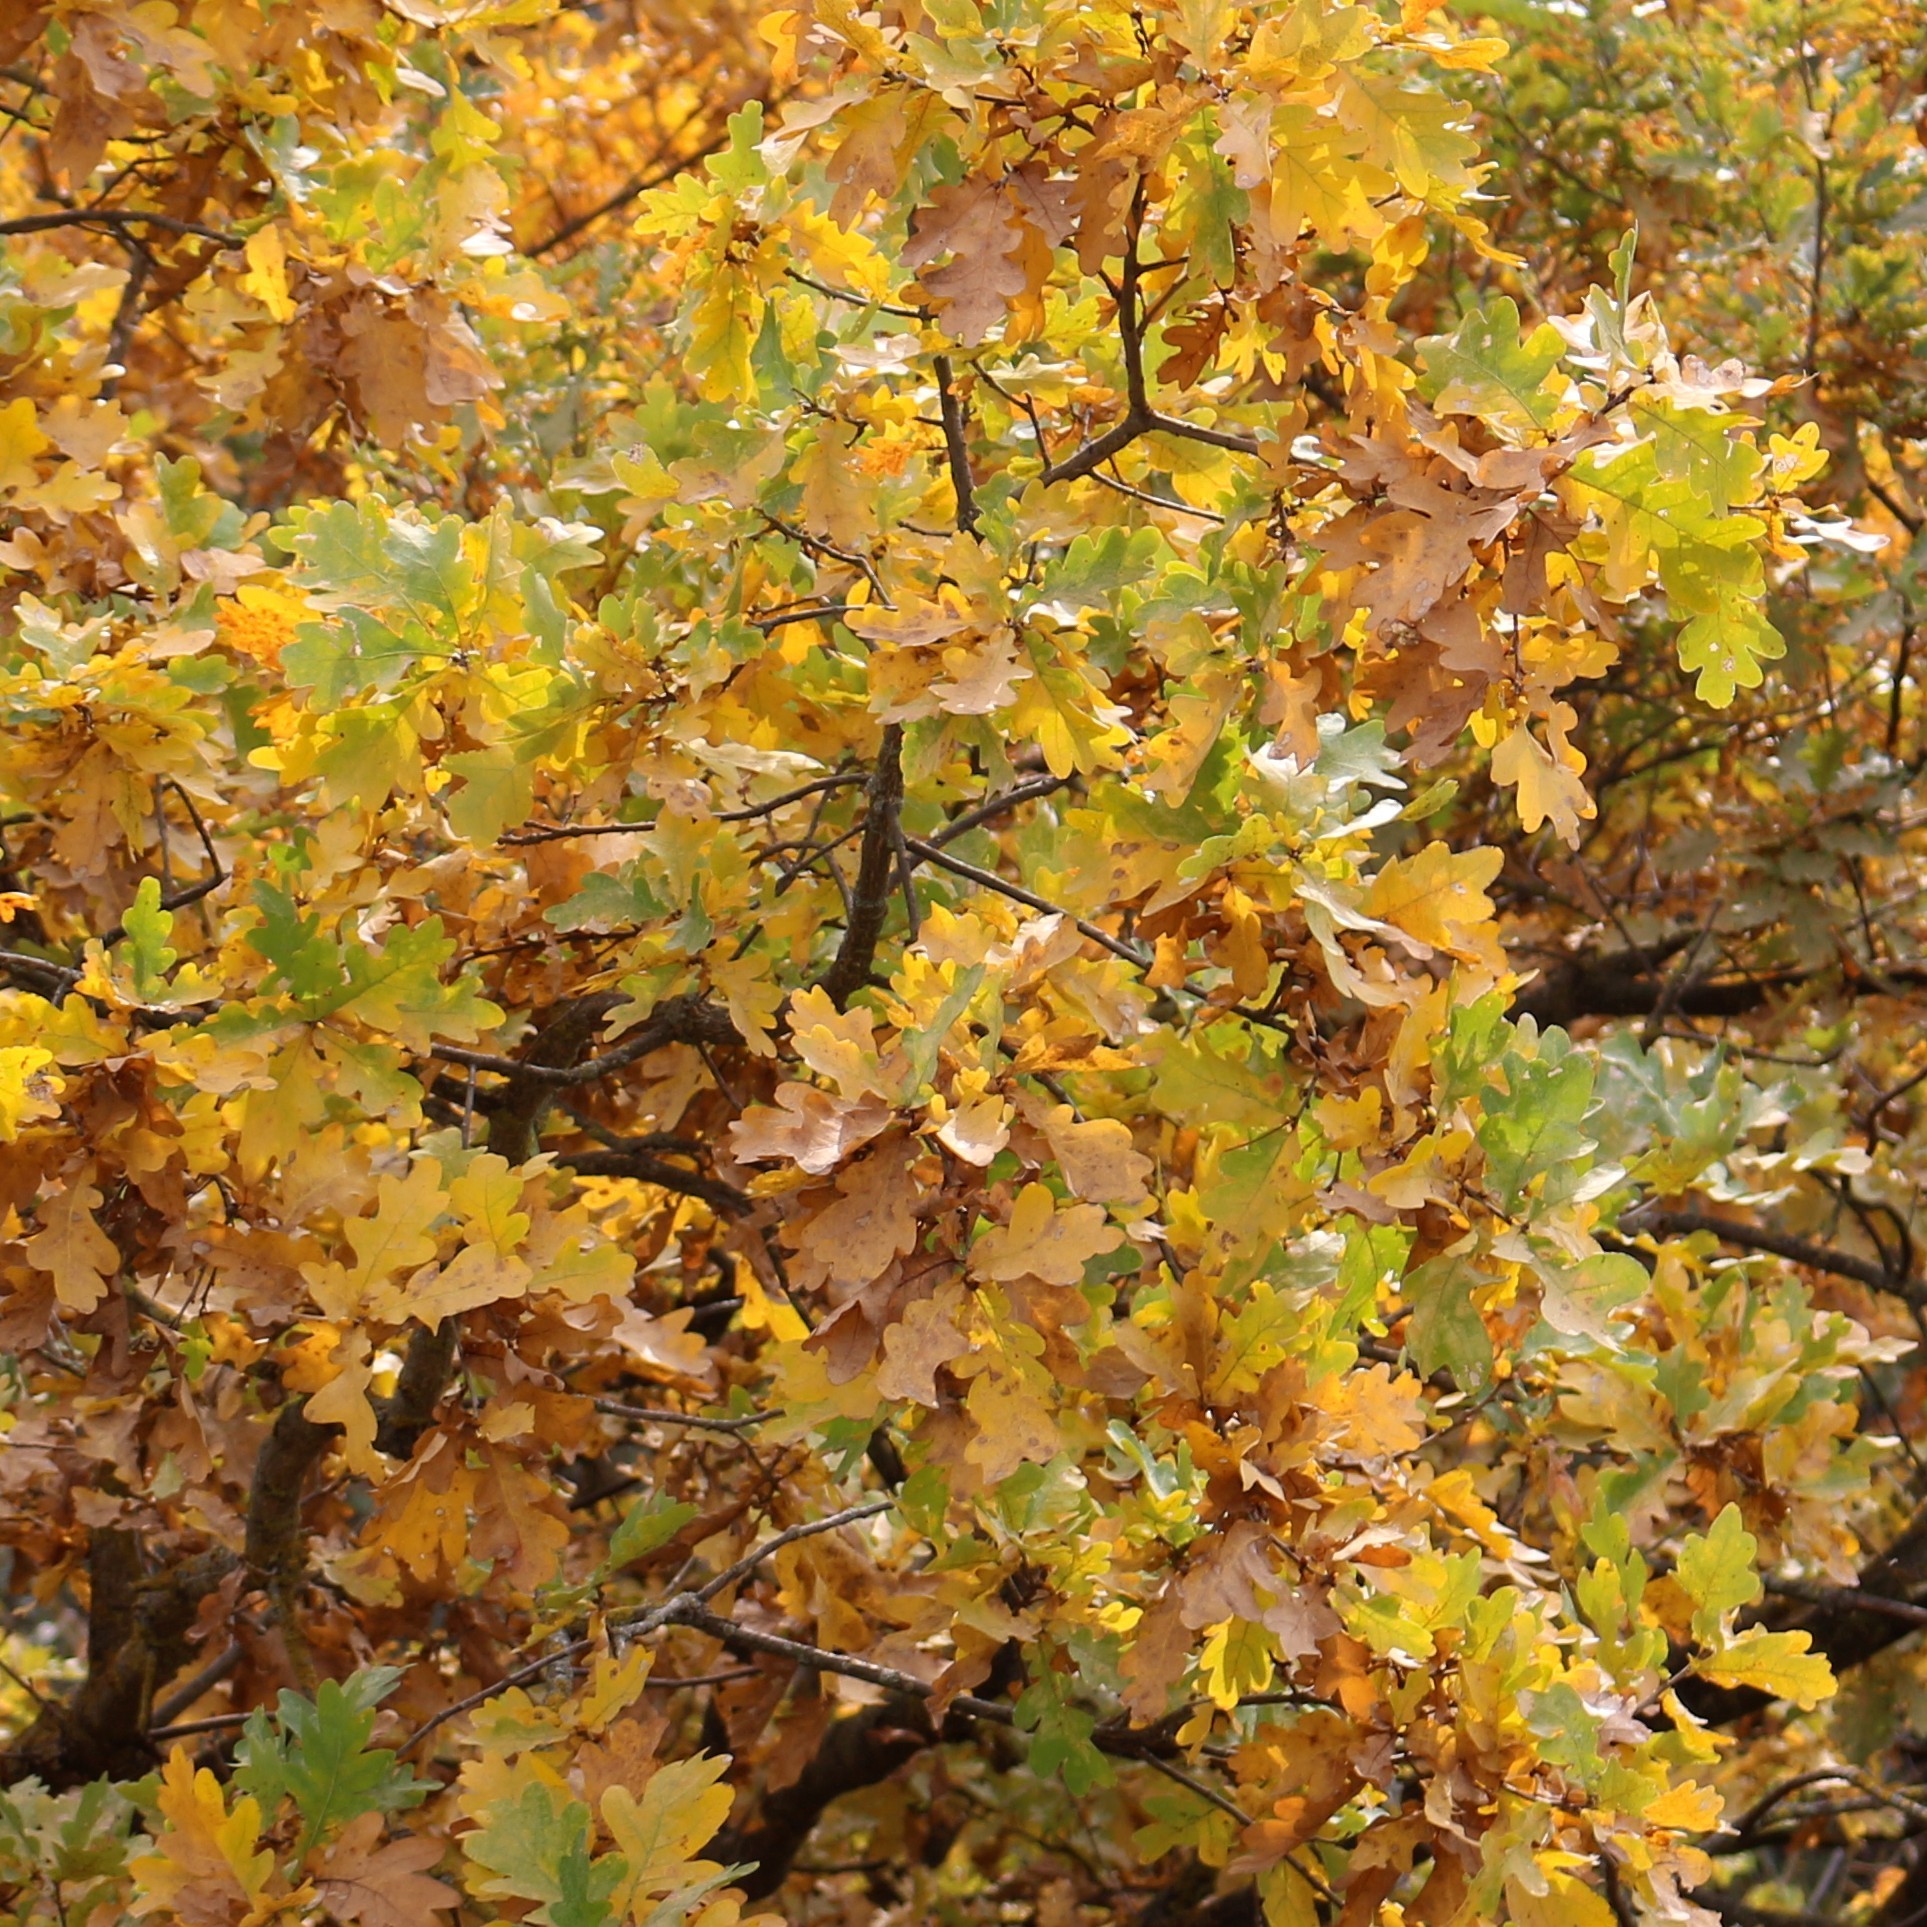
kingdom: Plantae
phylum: Tracheophyta
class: Magnoliopsida
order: Fagales
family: Fagaceae
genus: Quercus
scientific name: Quercus robur
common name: Pedunculate oak
